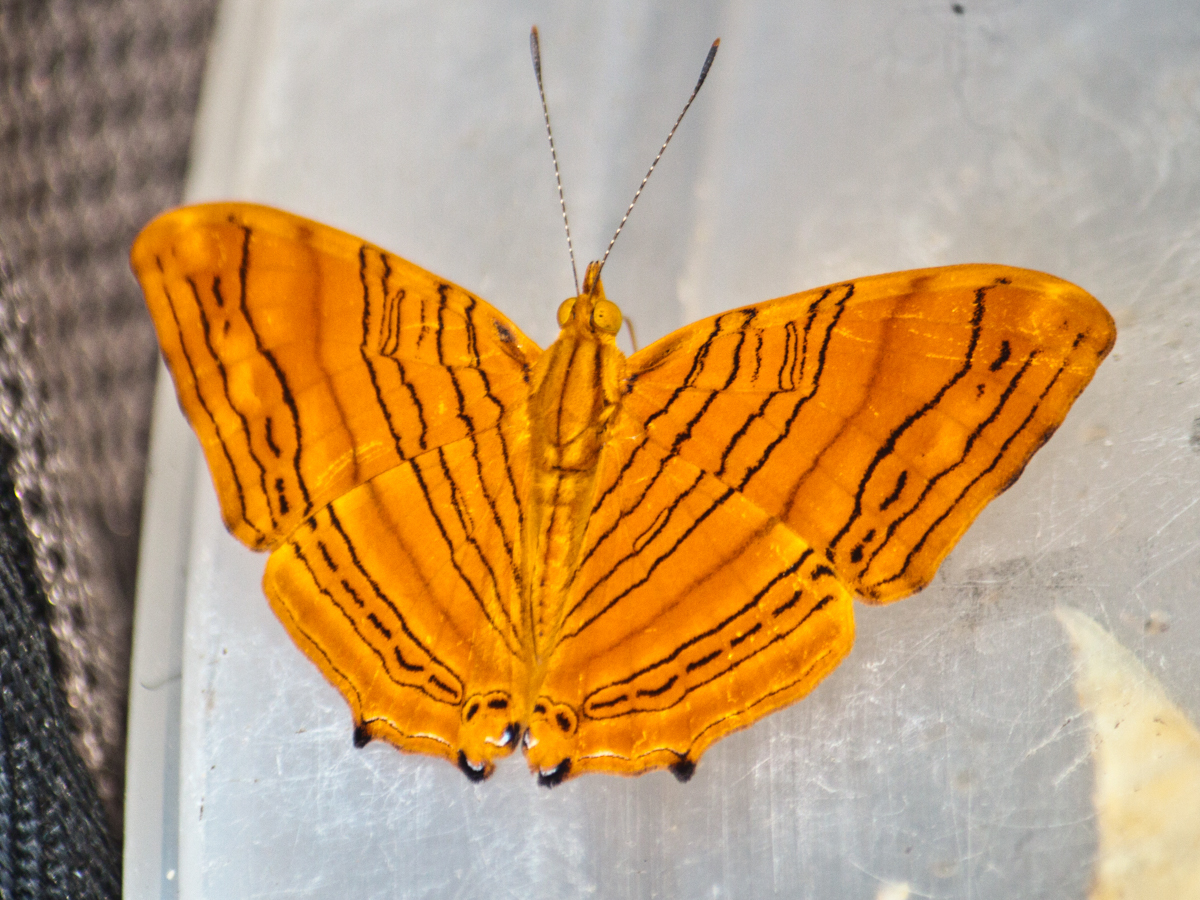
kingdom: Animalia
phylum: Arthropoda
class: Insecta
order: Lepidoptera
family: Nymphalidae
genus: Chersonesia
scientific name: Chersonesia intermedia
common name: Intermediate maplet
